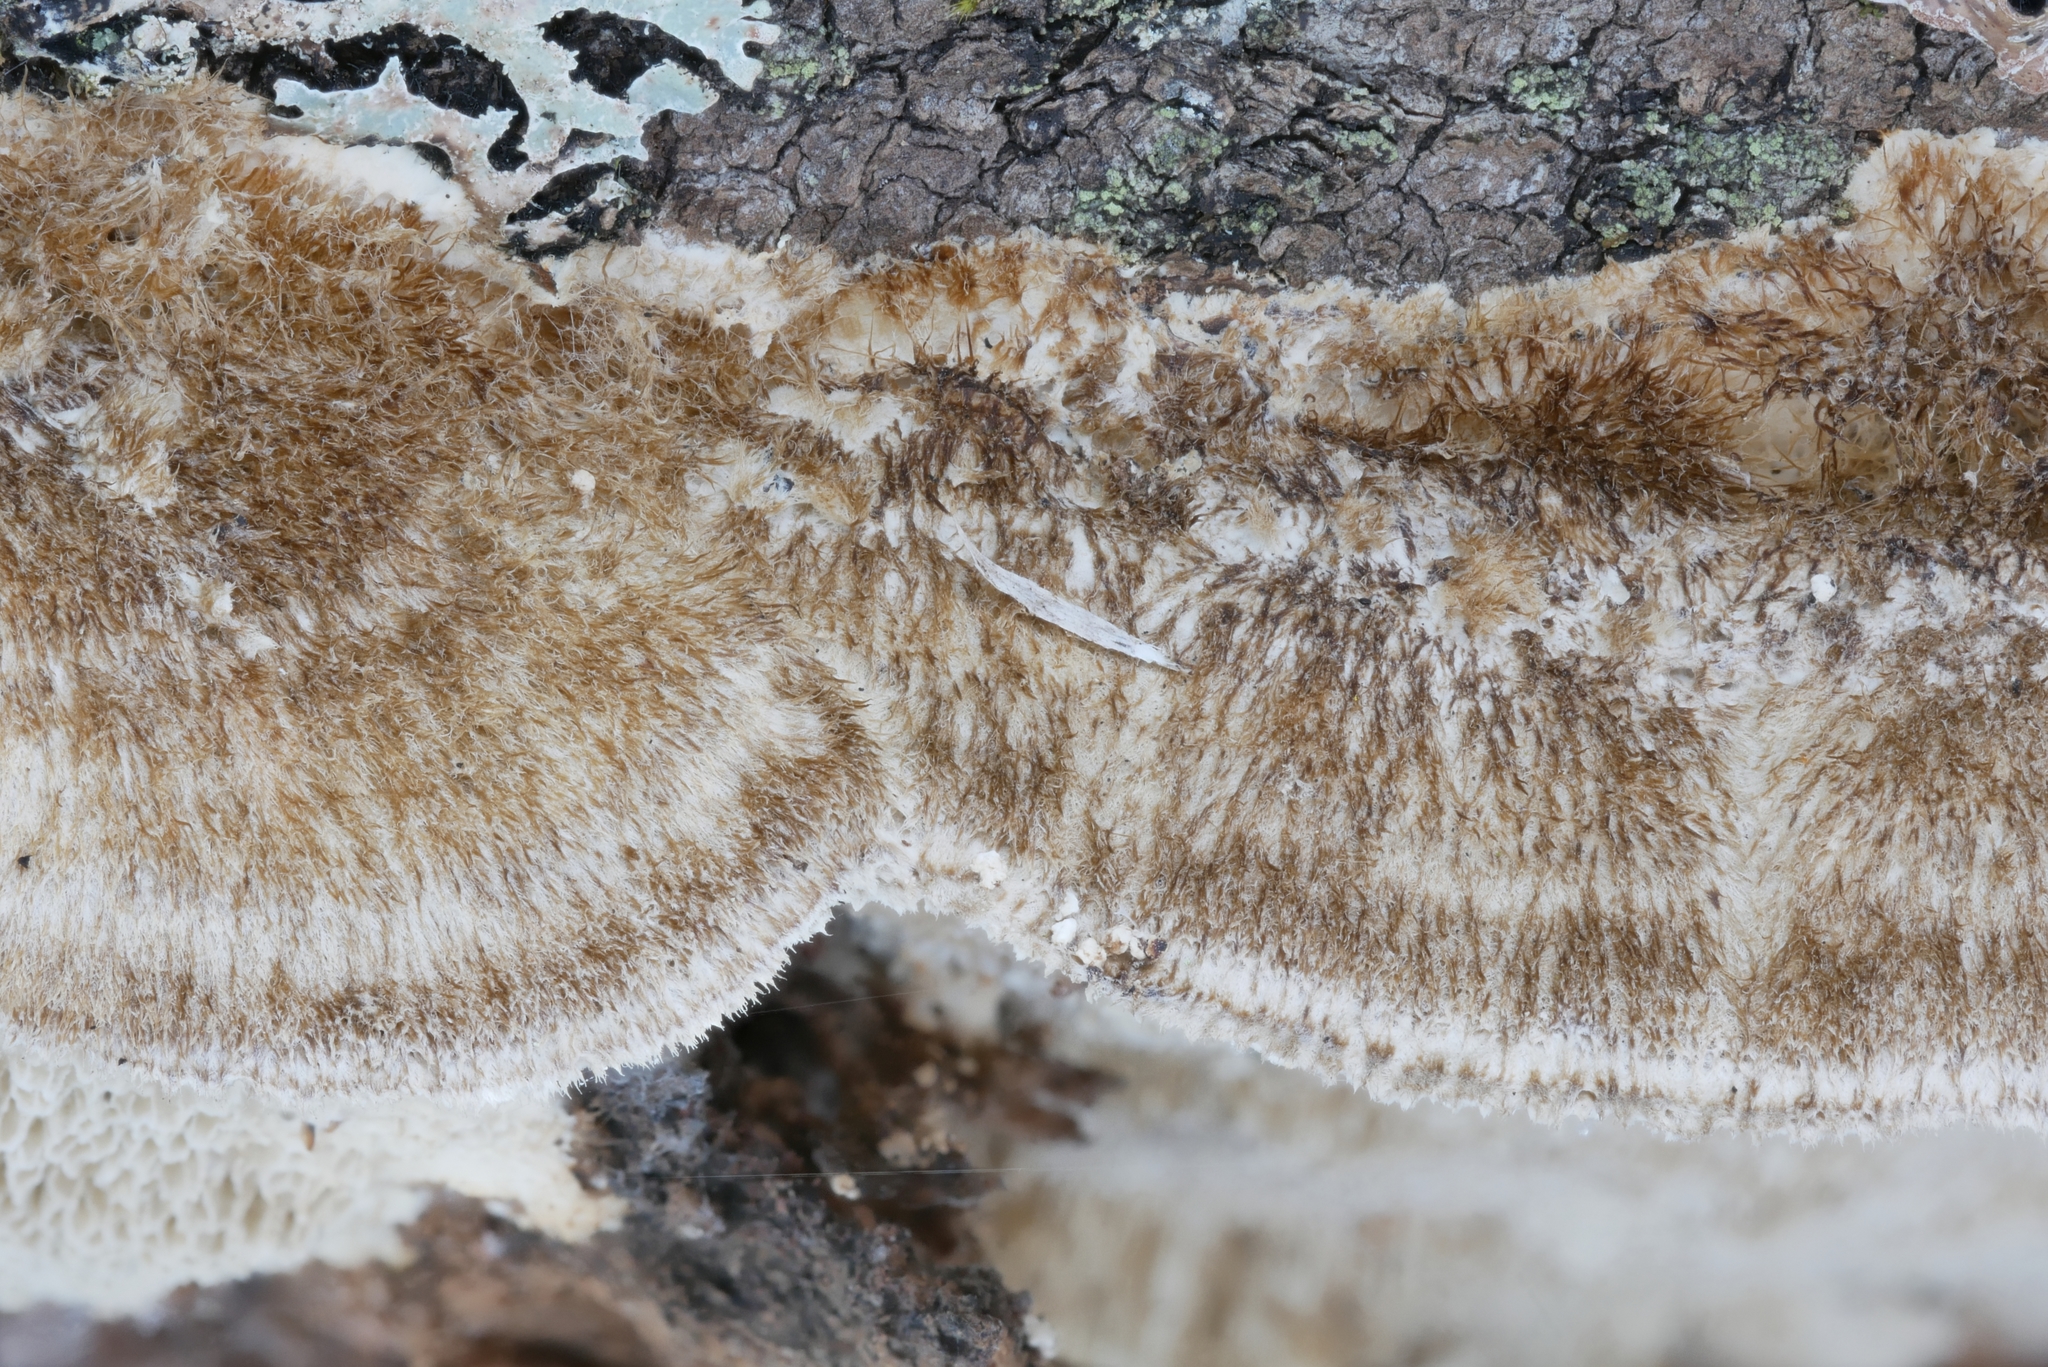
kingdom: Fungi
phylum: Basidiomycota
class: Agaricomycetes
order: Polyporales
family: Irpicaceae
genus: Trametopsis
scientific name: Trametopsis cervina
